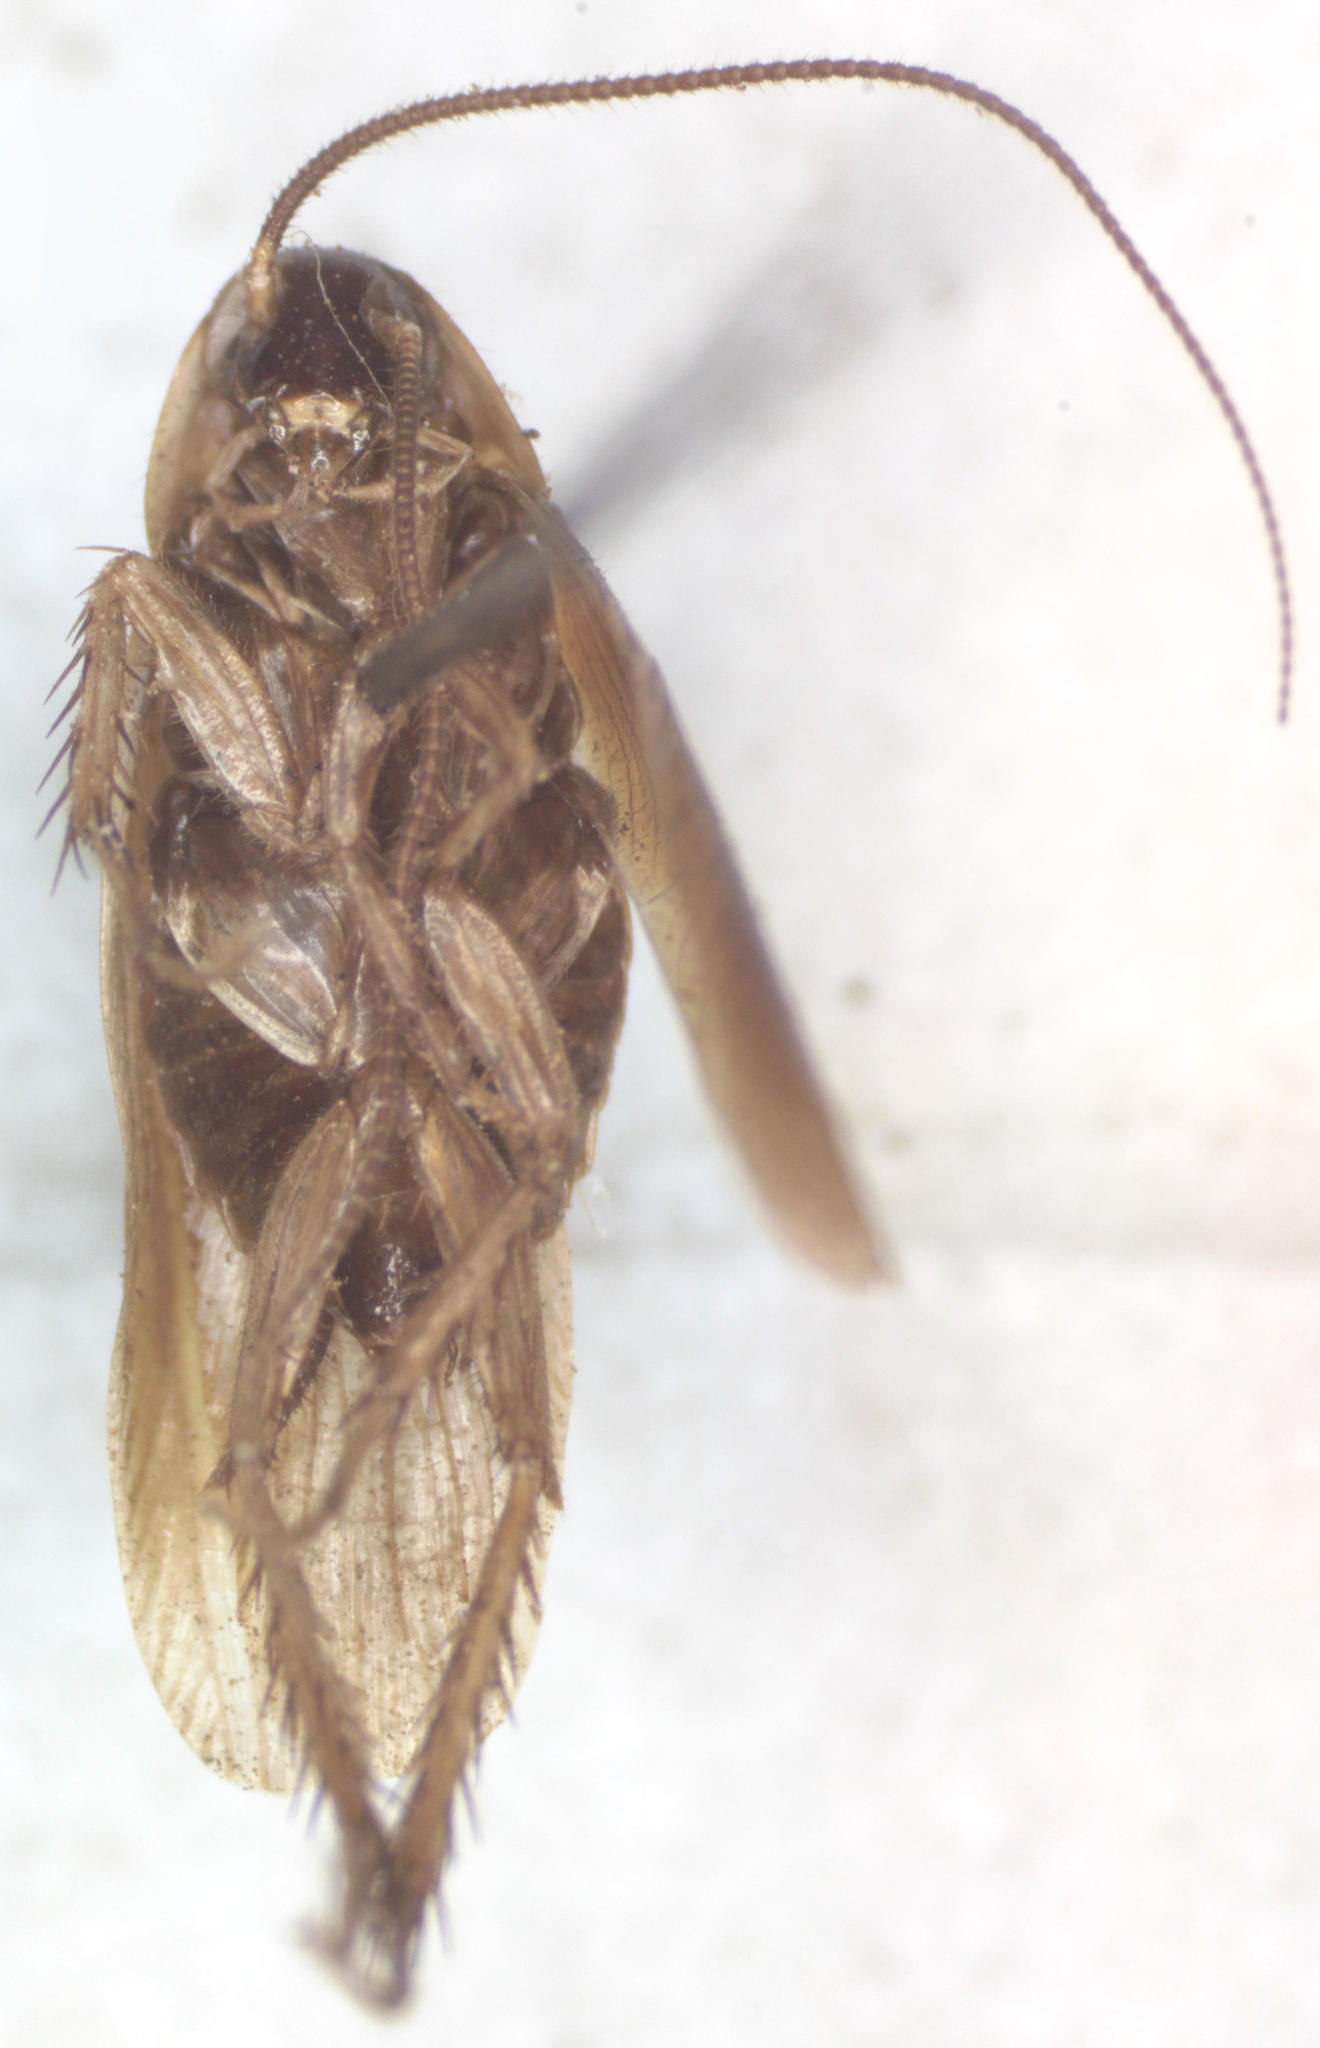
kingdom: Animalia
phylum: Arthropoda
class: Insecta
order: Blattodea
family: Ectobiidae
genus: Ischnoptera
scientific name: Ischnoptera panamae
